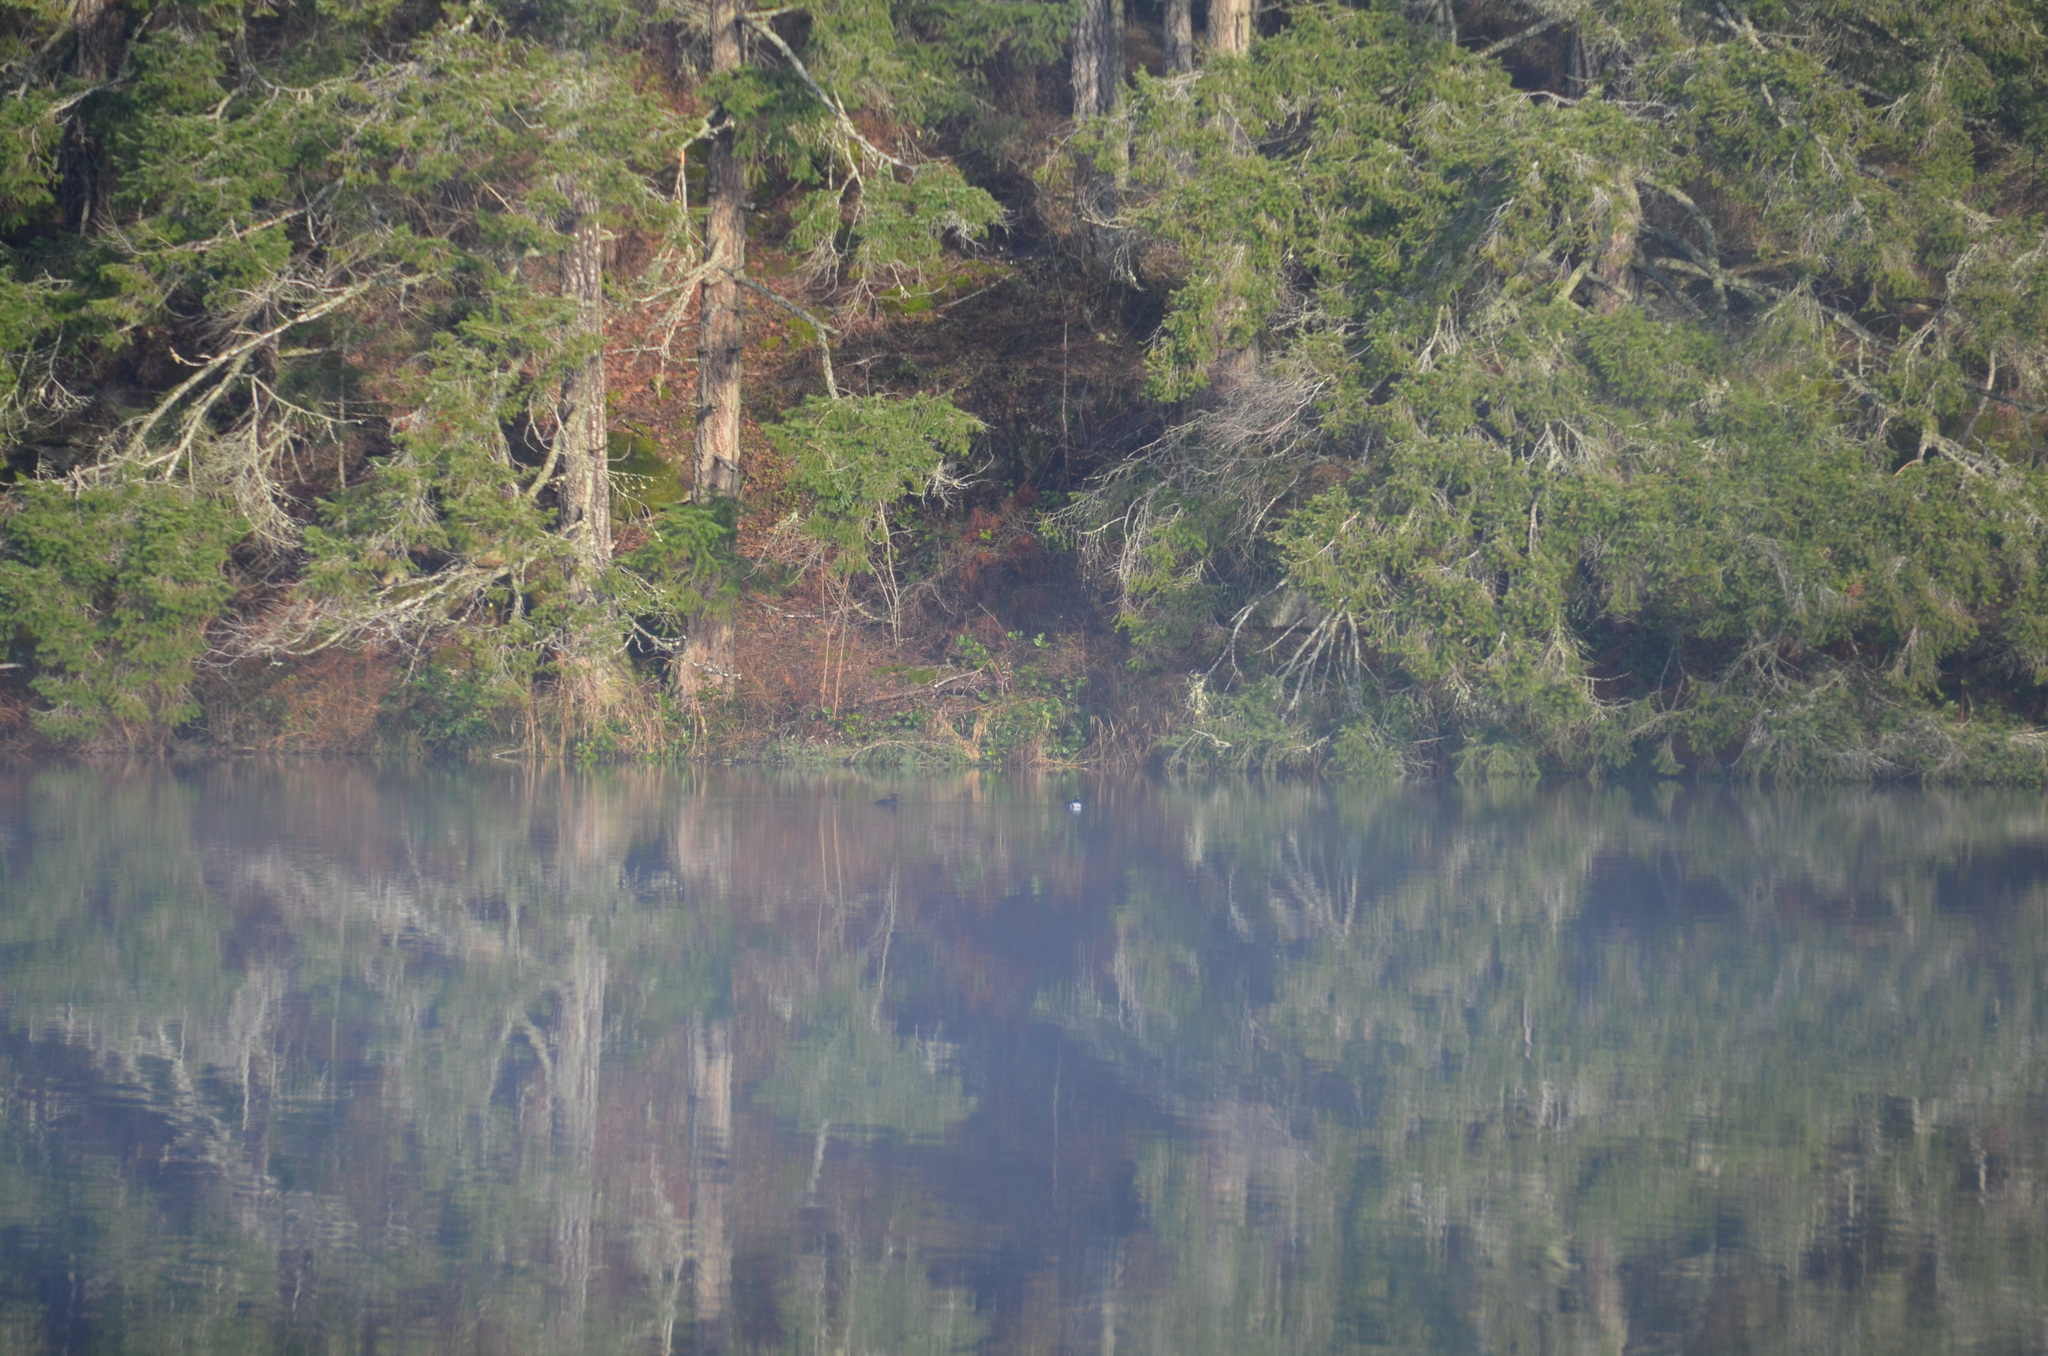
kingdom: Animalia
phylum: Chordata
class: Aves
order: Anseriformes
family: Anatidae
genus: Lophodytes
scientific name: Lophodytes cucullatus
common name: Hooded merganser
